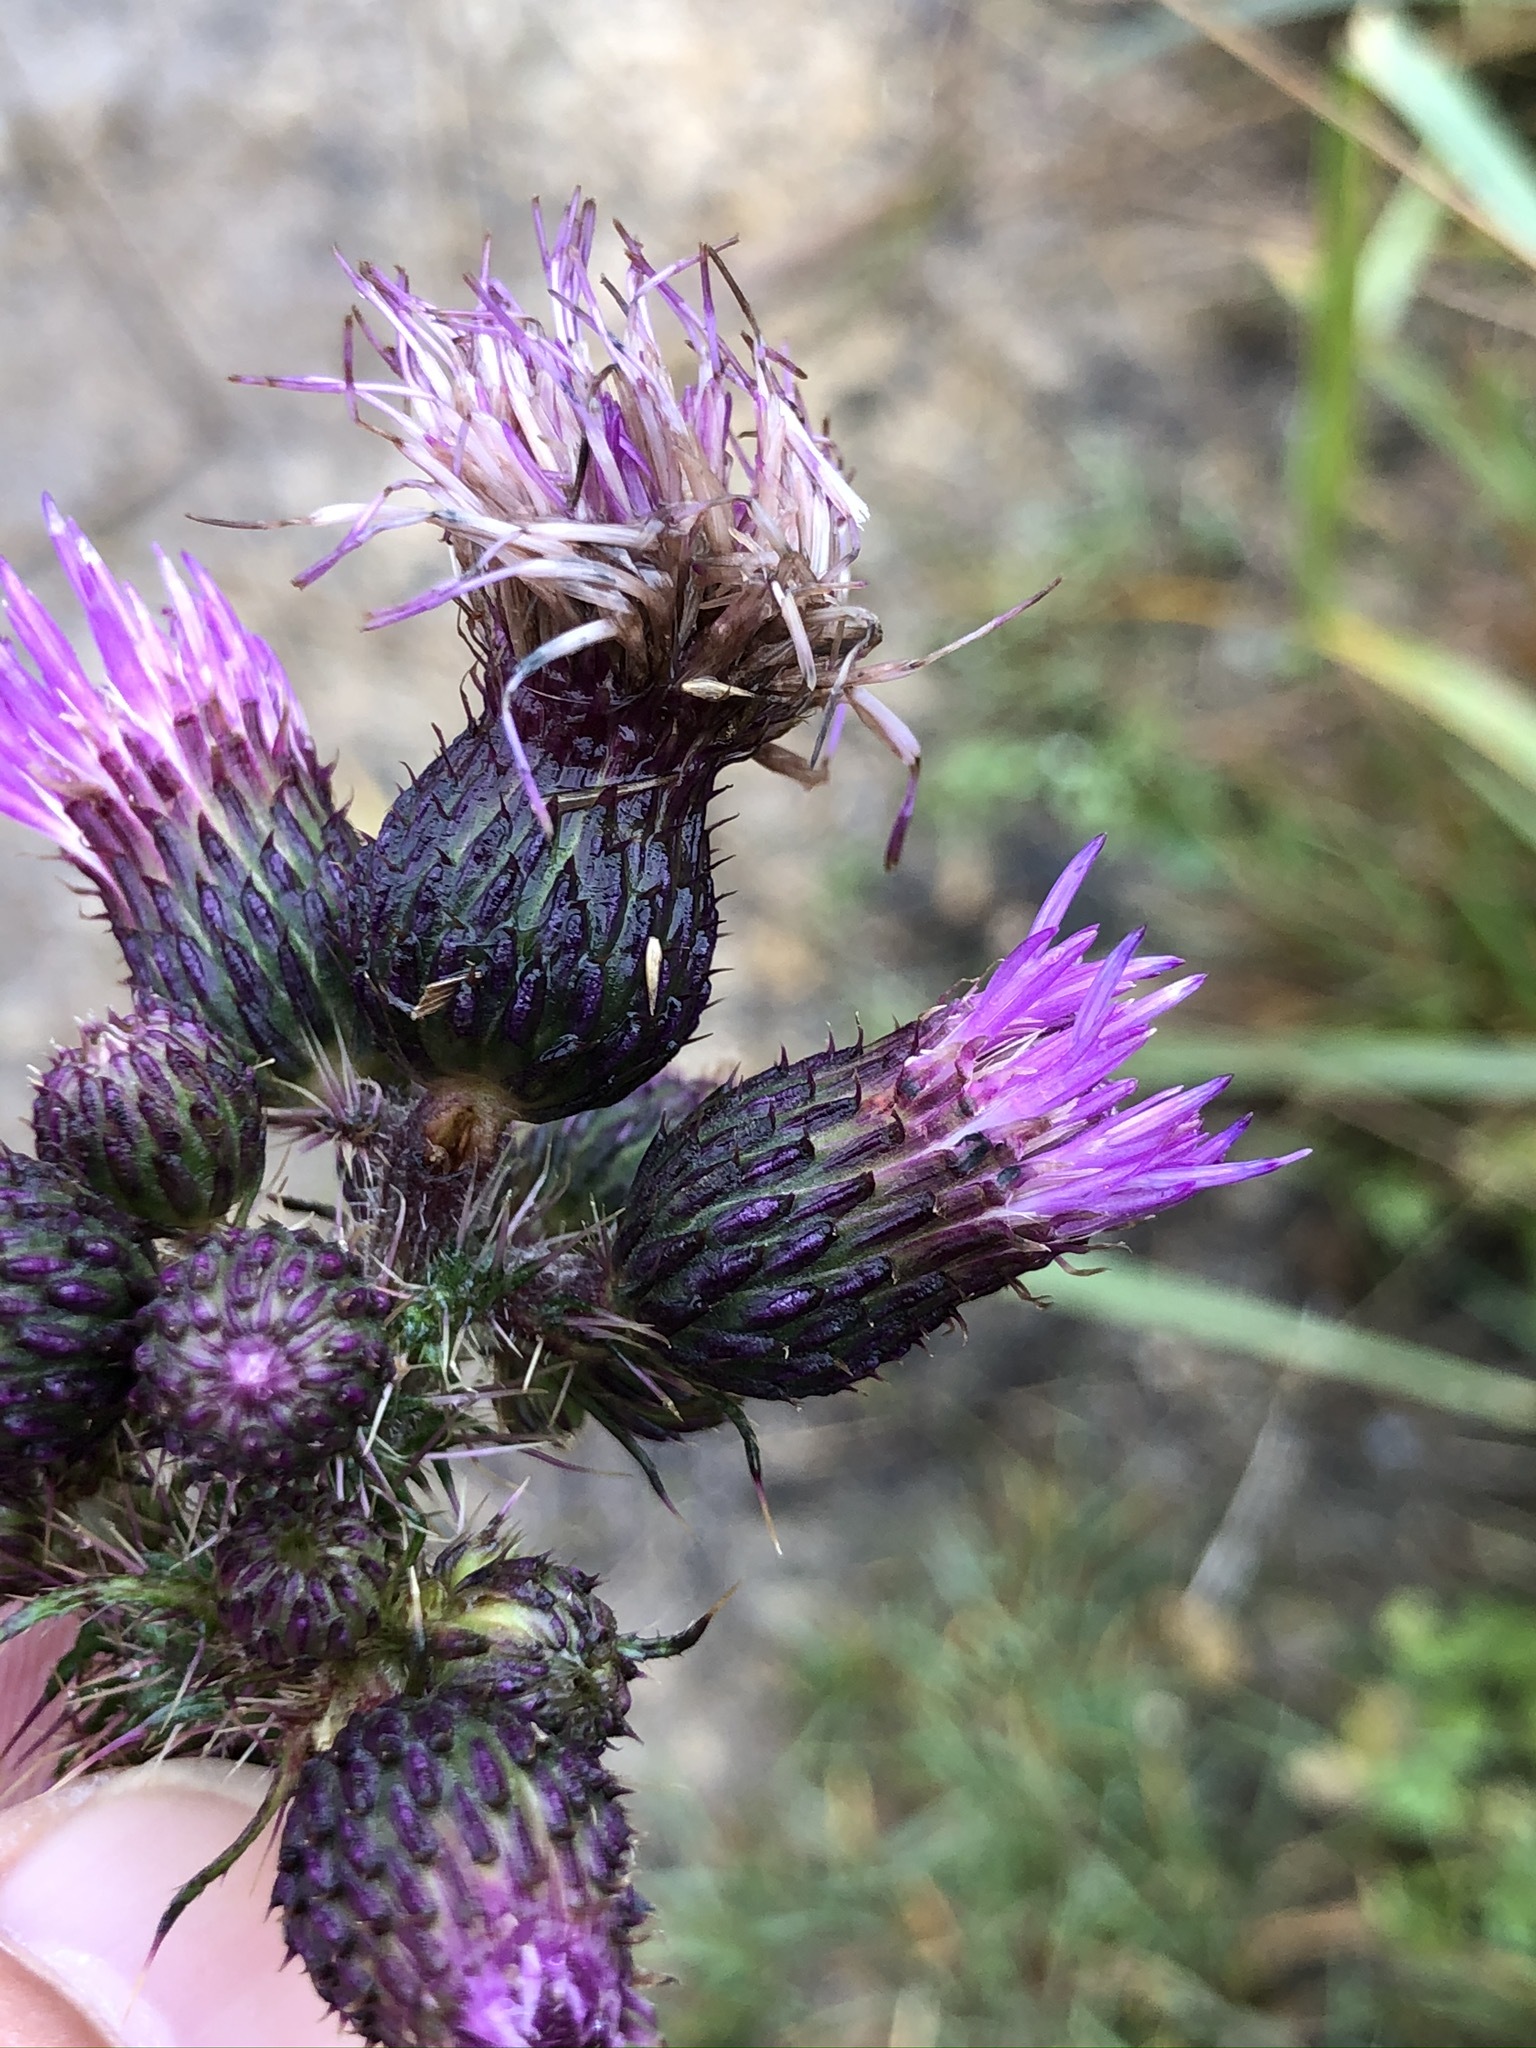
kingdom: Plantae
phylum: Tracheophyta
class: Magnoliopsida
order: Asterales
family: Asteraceae
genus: Cirsium
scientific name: Cirsium palustre
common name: Marsh thistle
